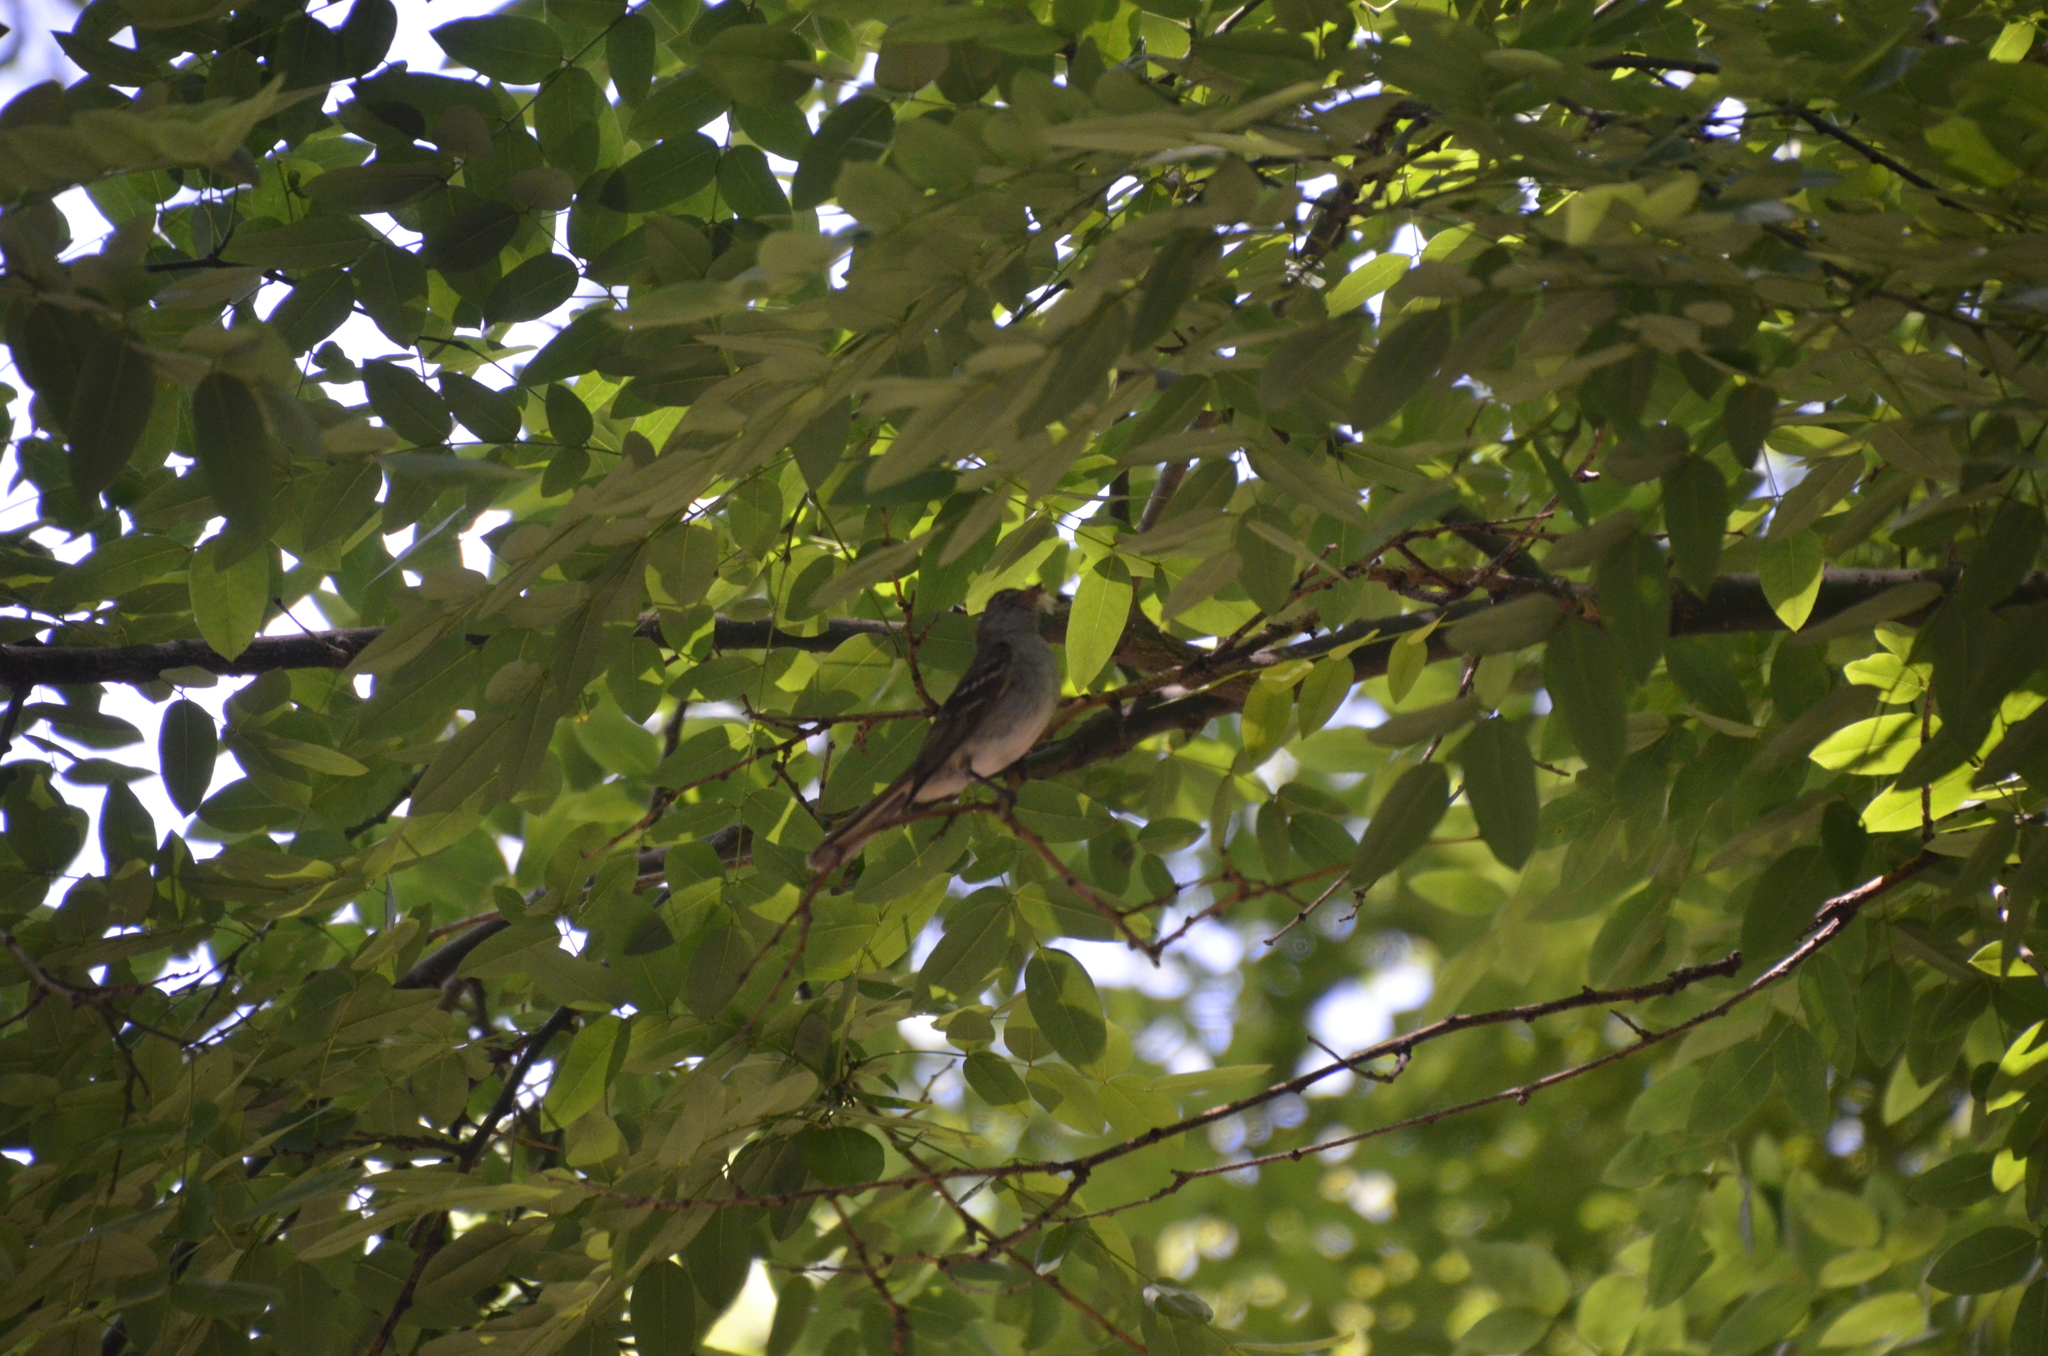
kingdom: Animalia
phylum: Chordata
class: Aves
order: Passeriformes
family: Tyrannidae
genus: Elaenia
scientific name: Elaenia parvirostris
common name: Small-billed elaenia
